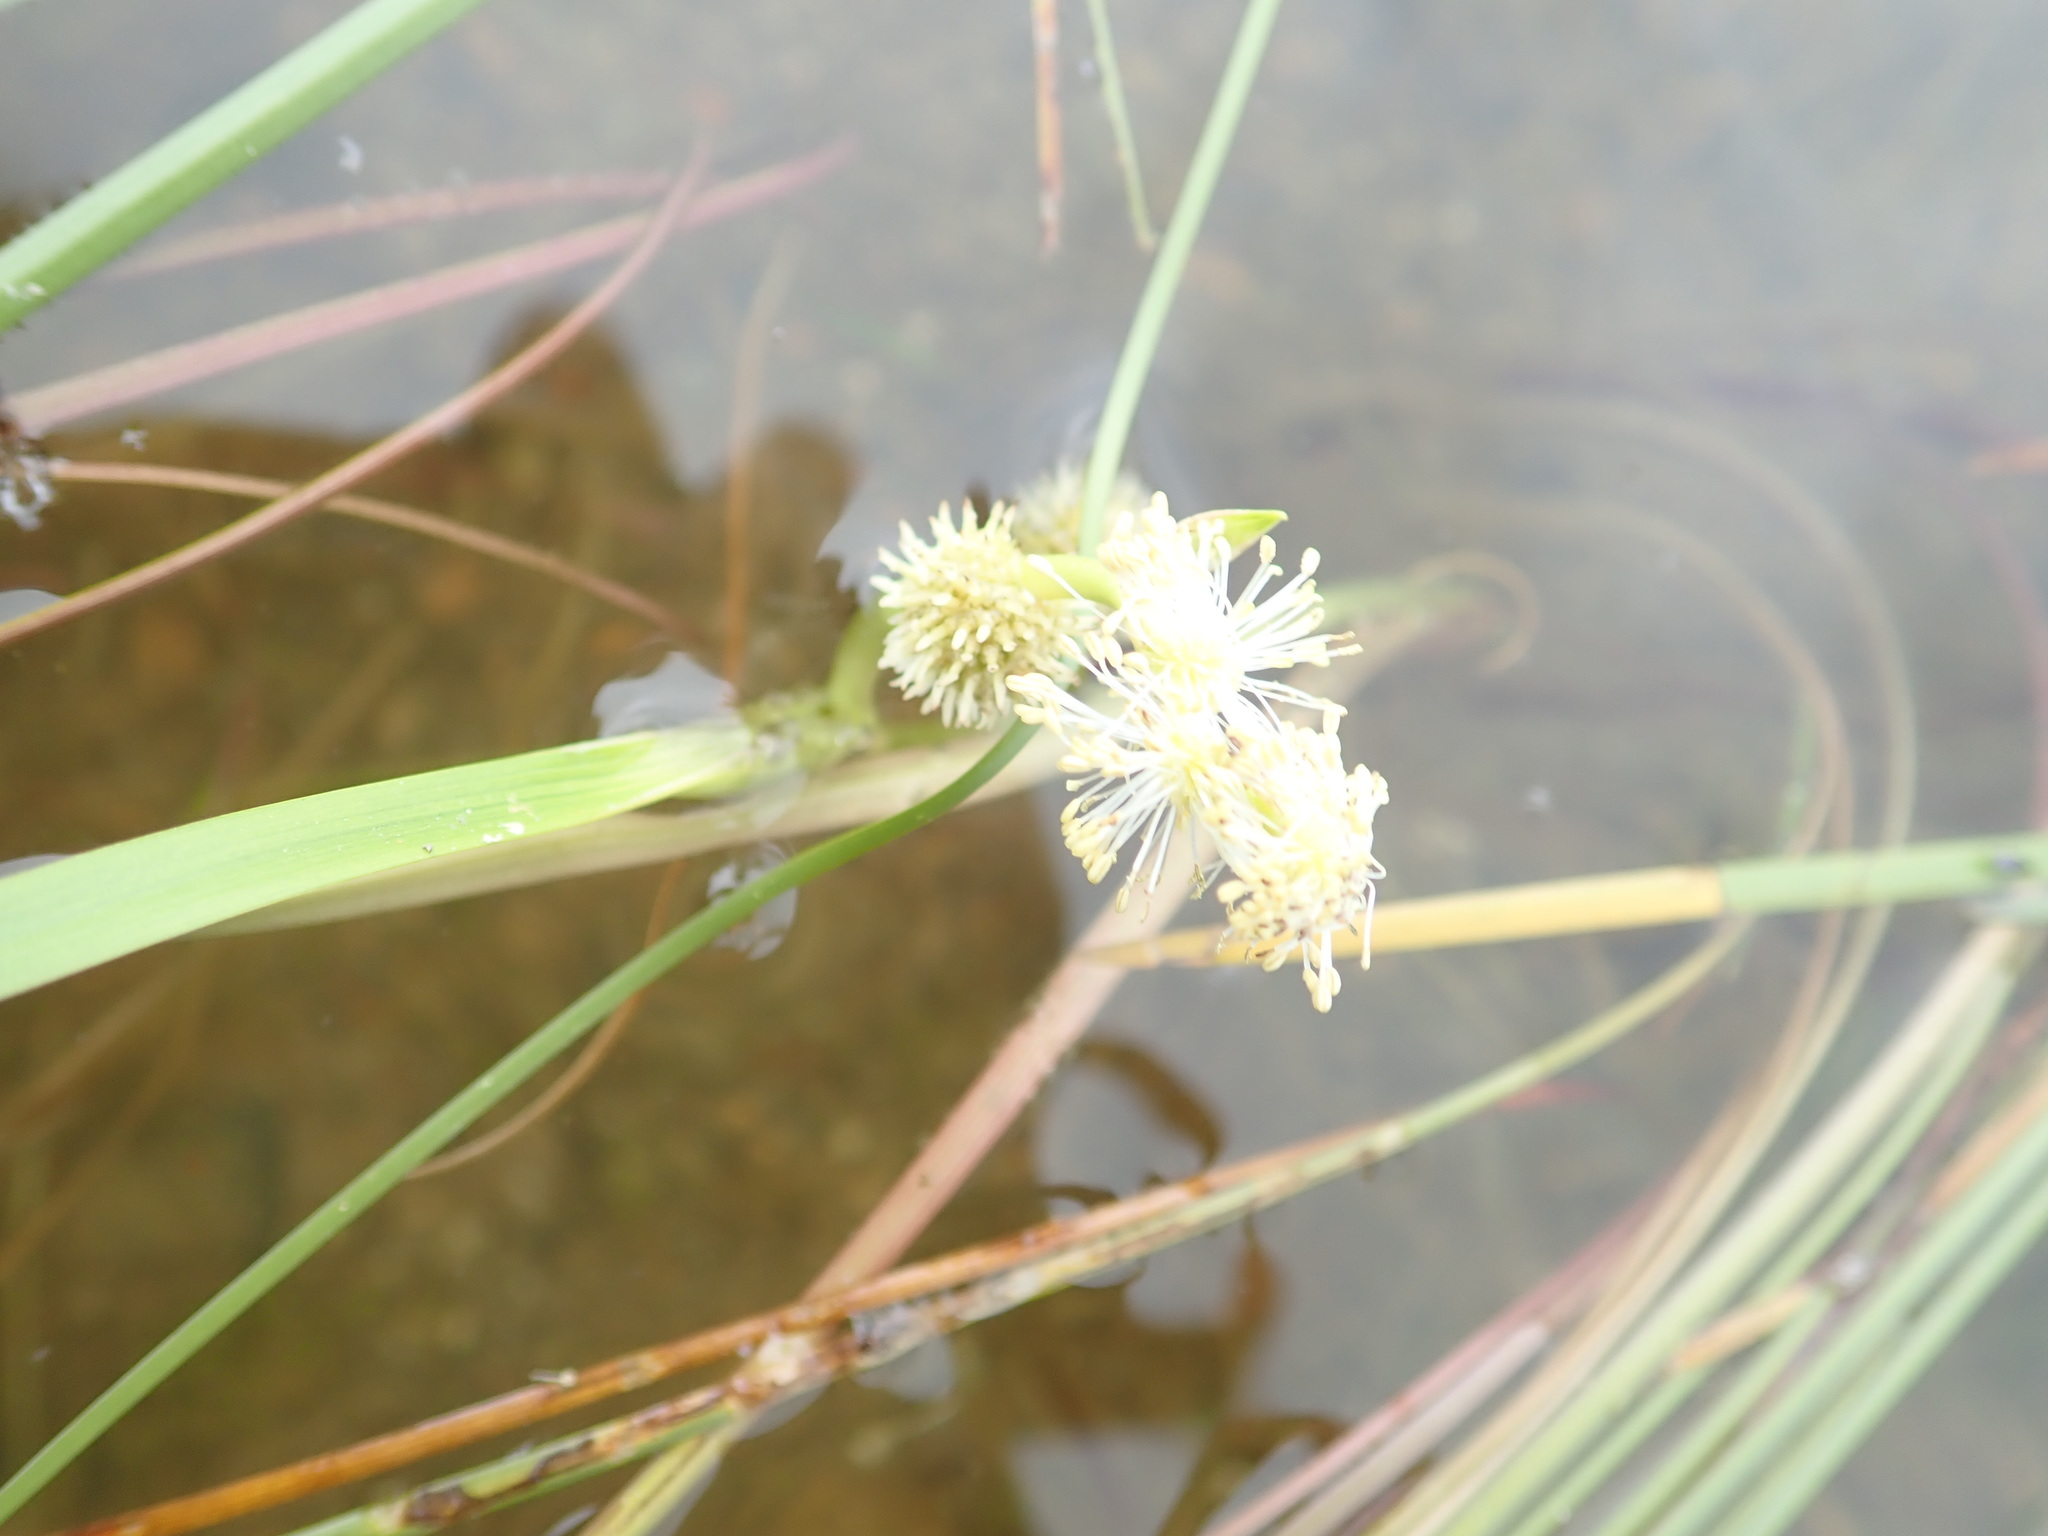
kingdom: Plantae
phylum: Tracheophyta
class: Liliopsida
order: Poales
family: Typhaceae
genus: Sparganium
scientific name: Sparganium angustifolium
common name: Floating bur-reed
